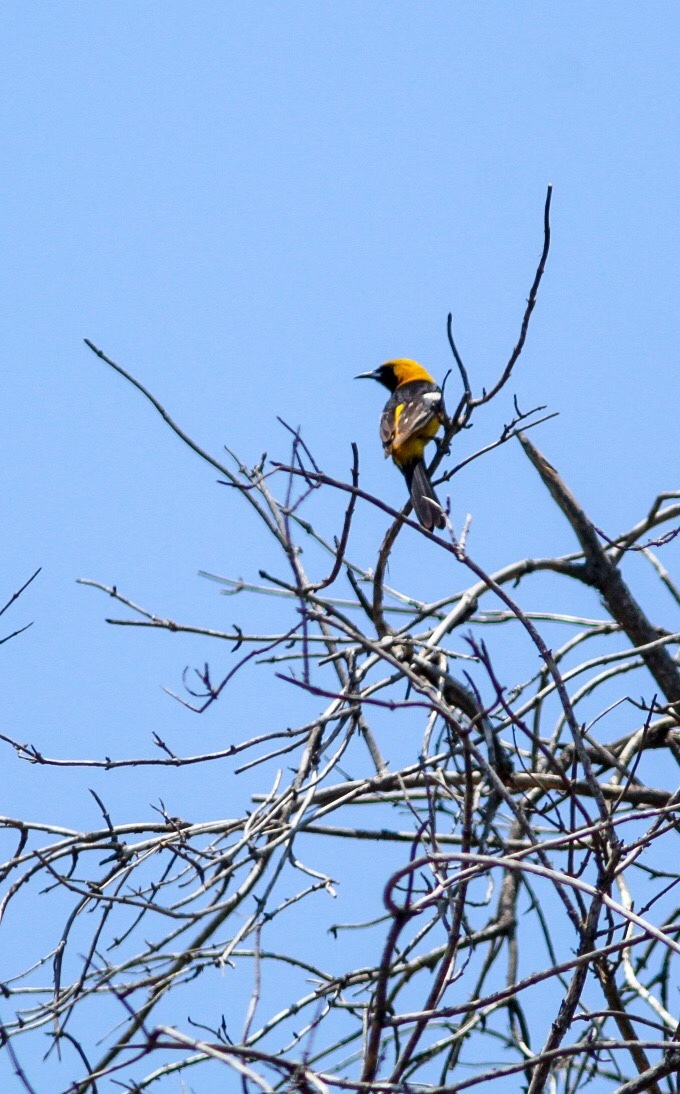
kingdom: Animalia
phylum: Chordata
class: Aves
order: Passeriformes
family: Icteridae
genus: Icterus
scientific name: Icterus cucullatus
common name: Hooded oriole
